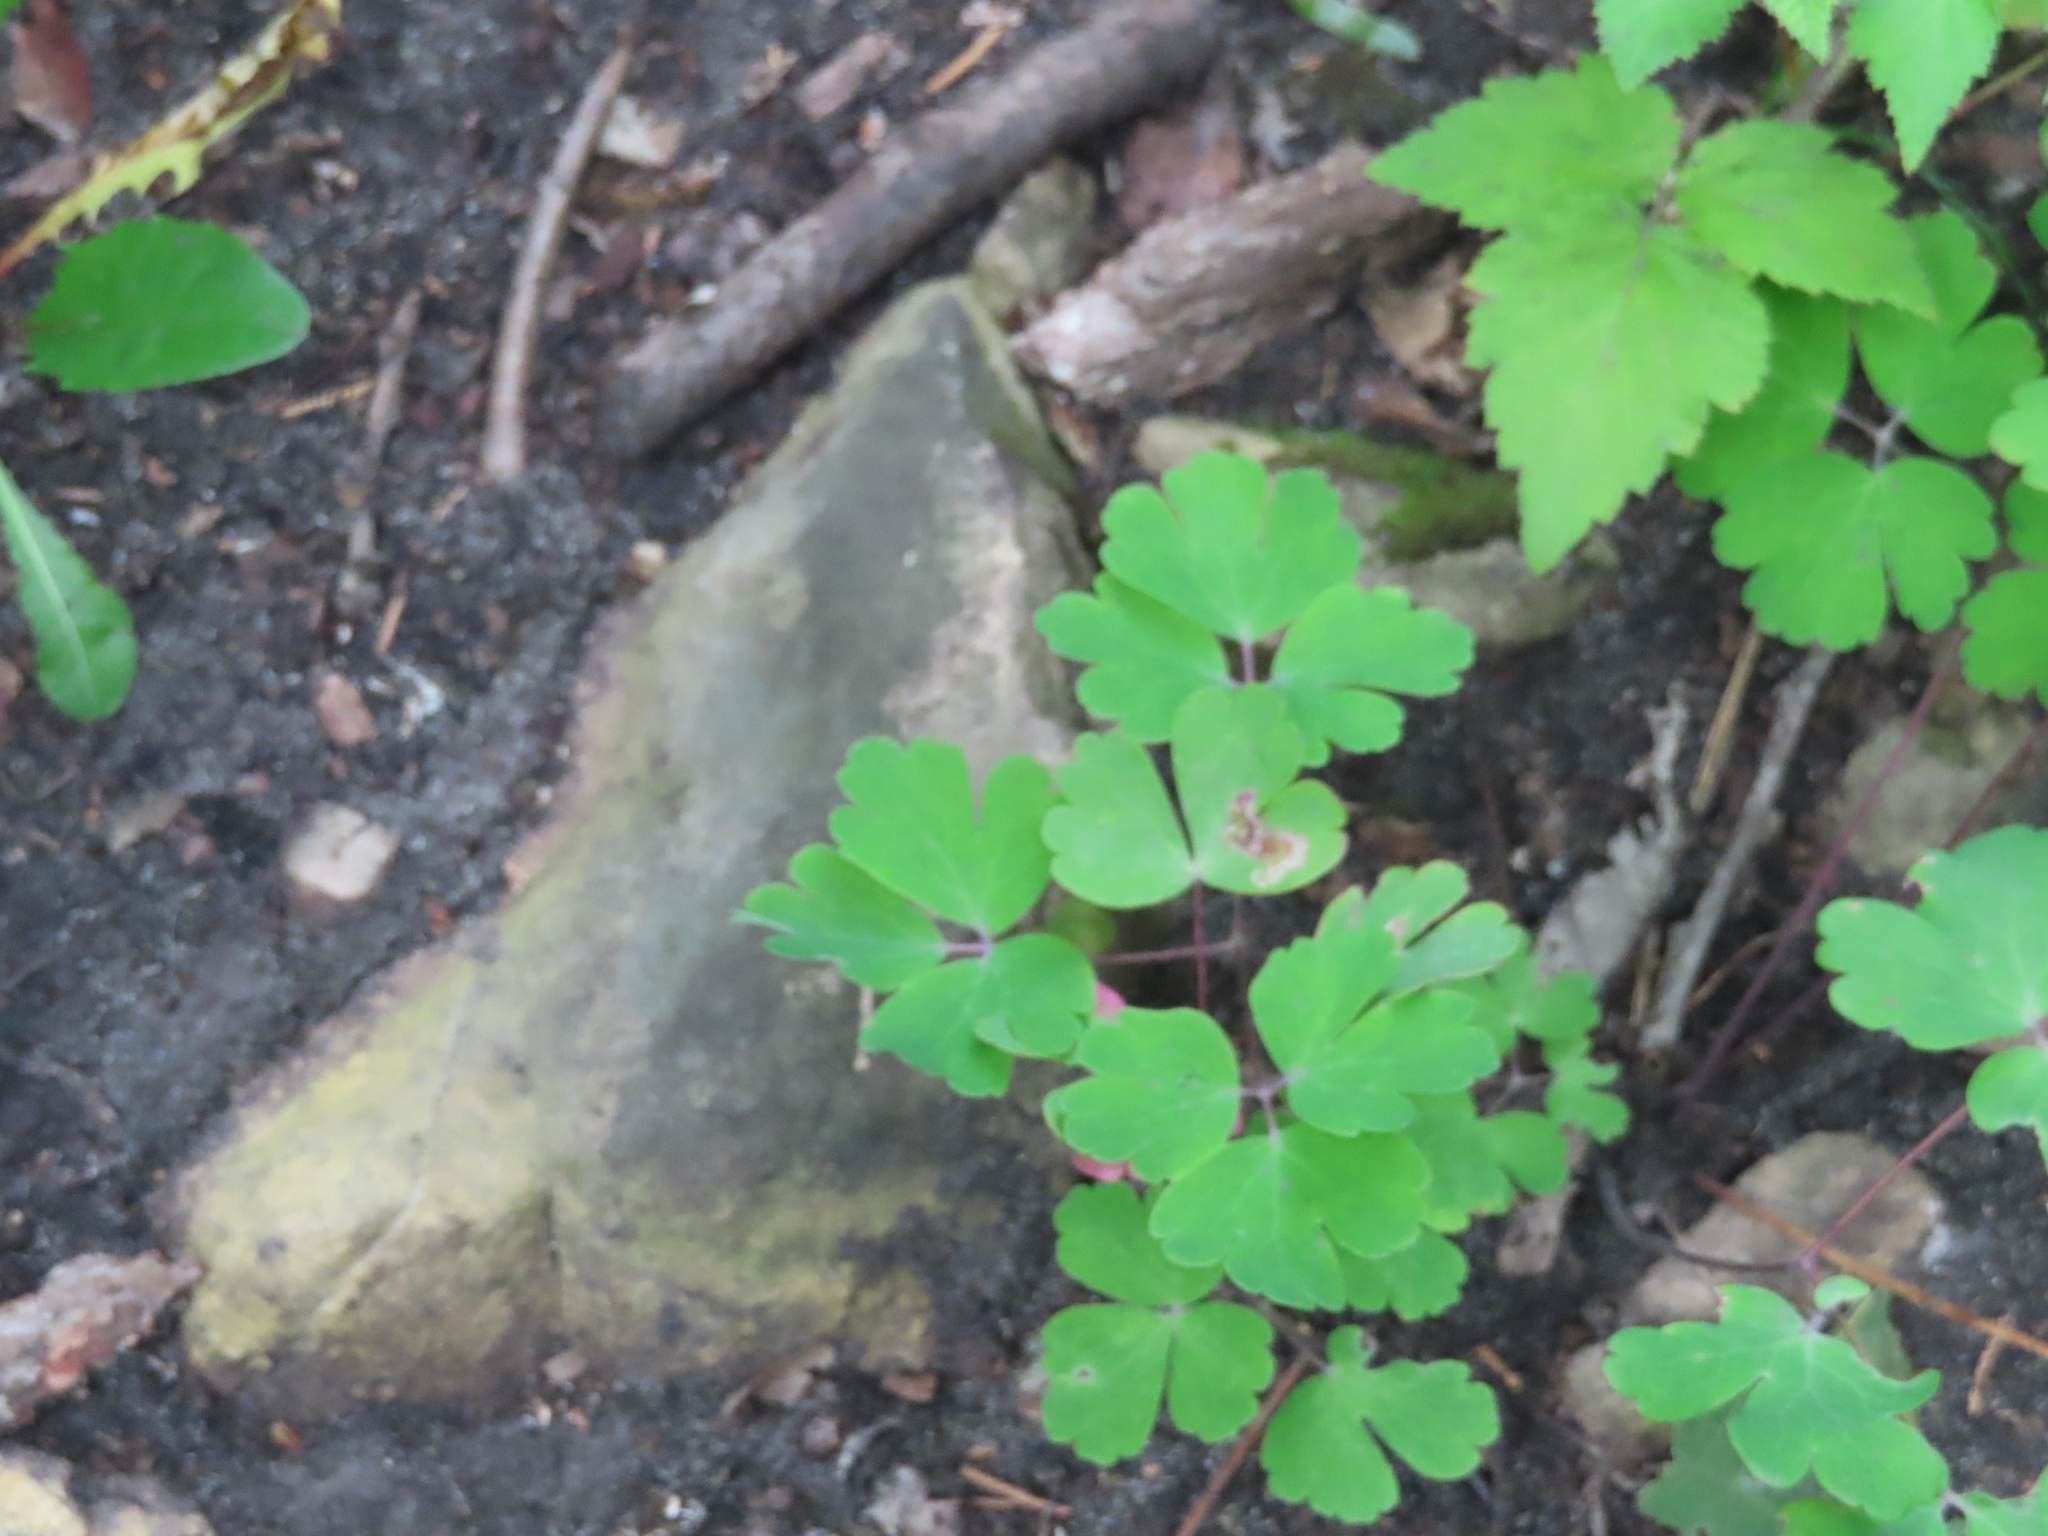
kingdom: Plantae
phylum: Tracheophyta
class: Magnoliopsida
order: Ranunculales
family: Ranunculaceae
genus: Aquilegia
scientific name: Aquilegia canadensis
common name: American columbine
